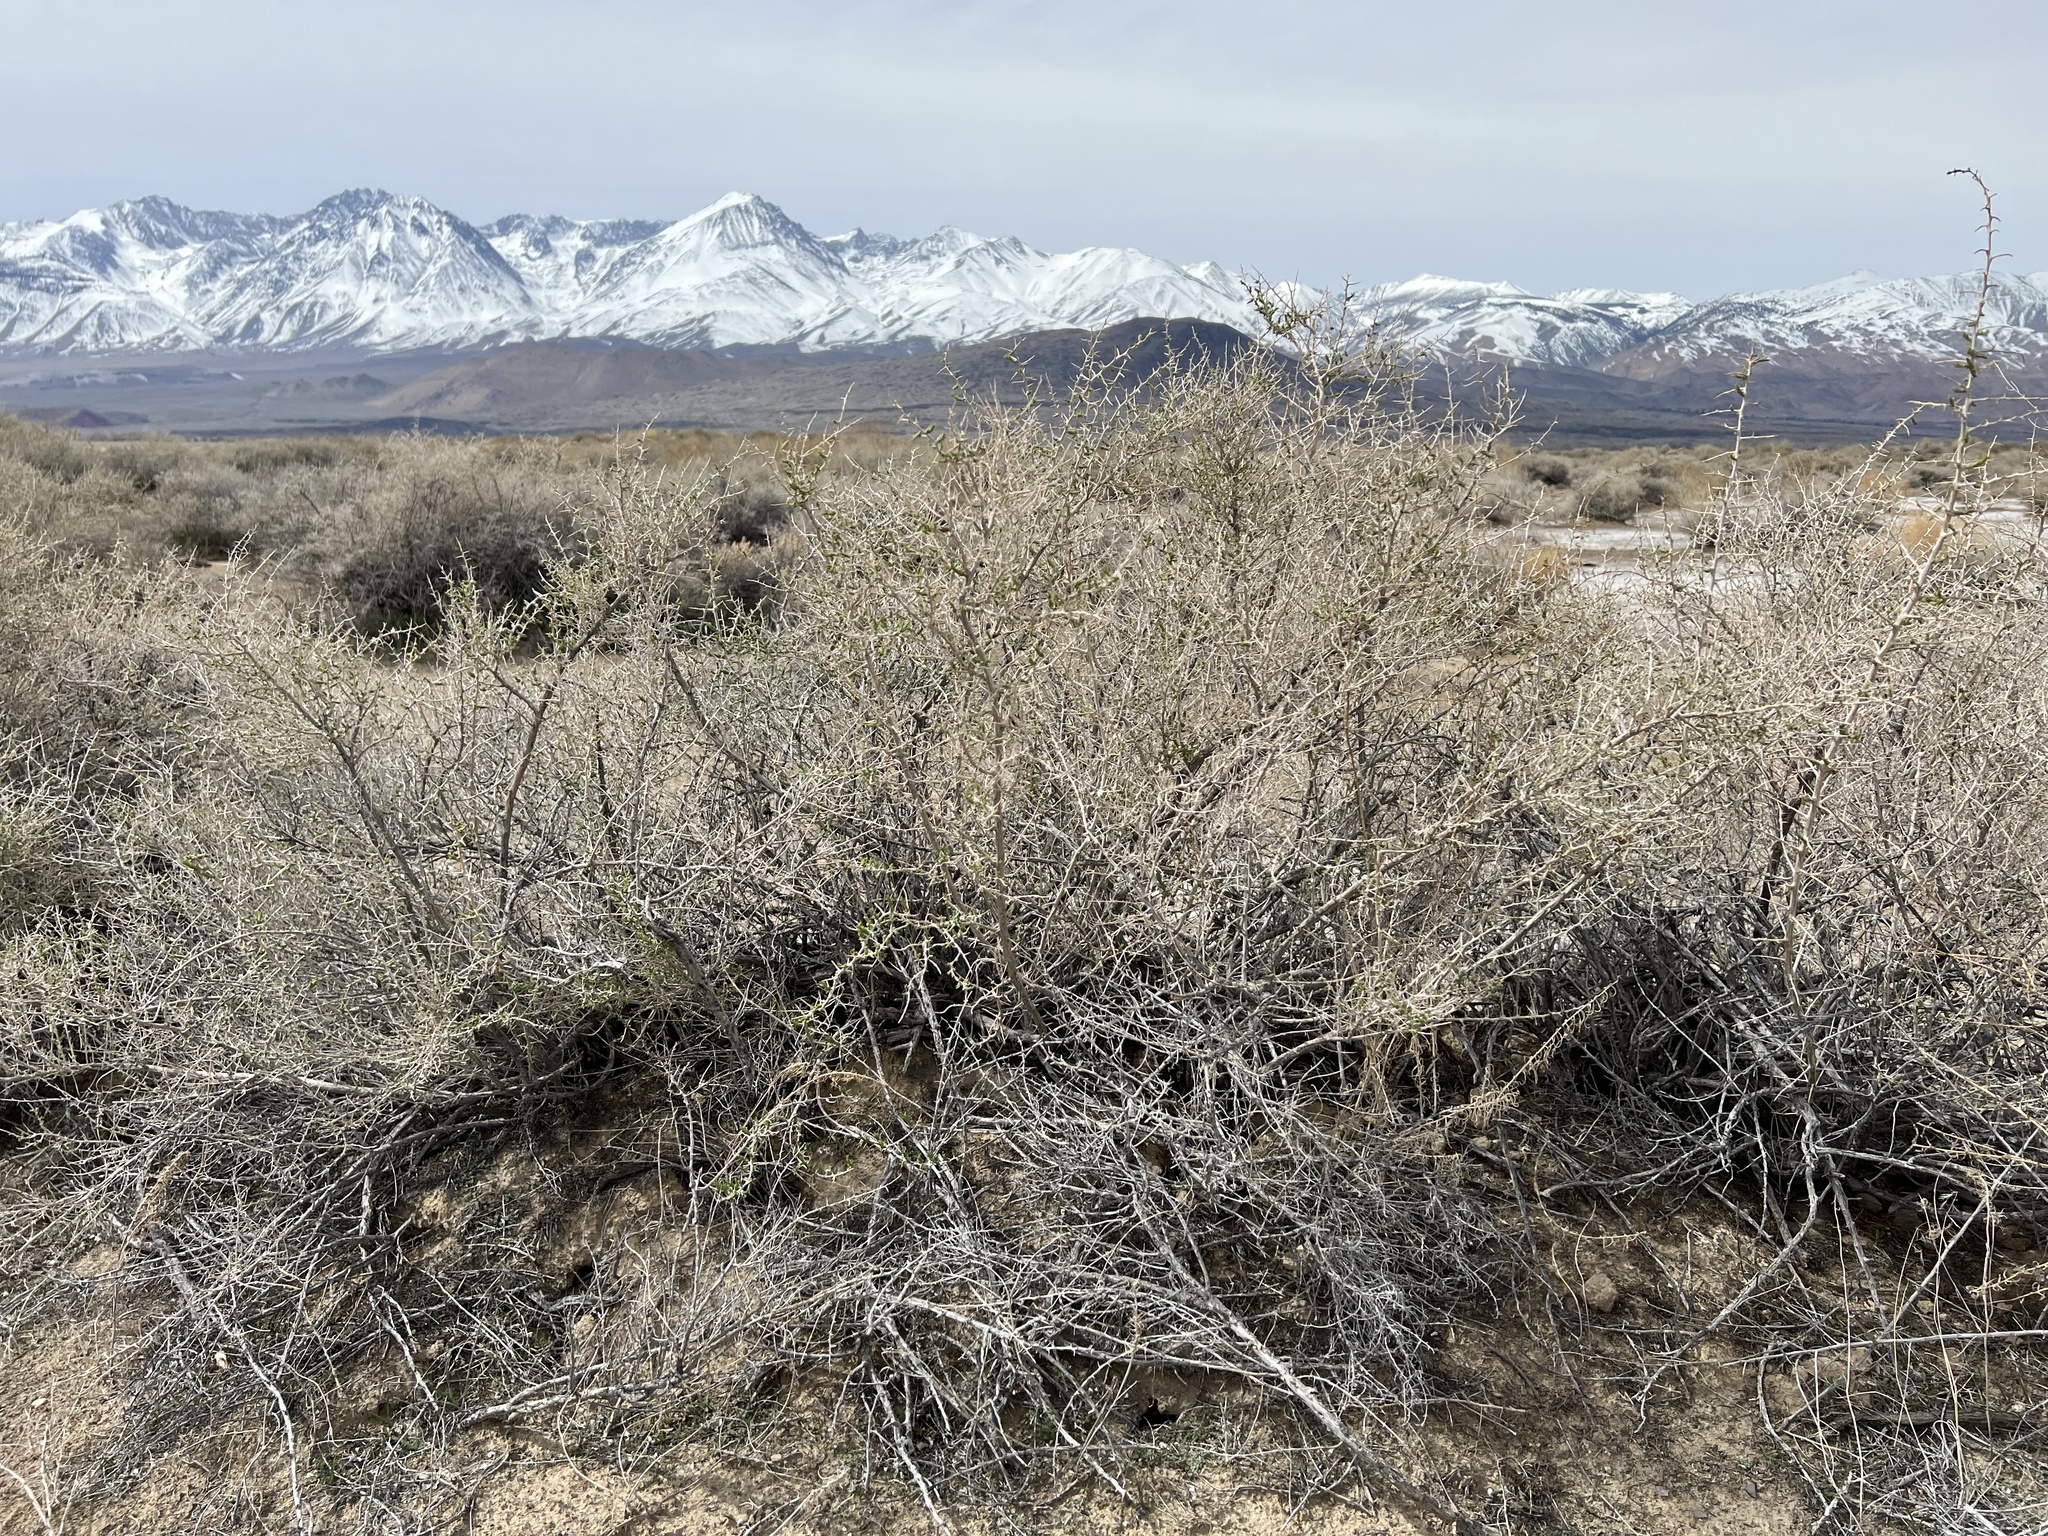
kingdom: Plantae
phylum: Tracheophyta
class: Magnoliopsida
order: Caryophyllales
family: Sarcobataceae
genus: Sarcobatus
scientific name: Sarcobatus vermiculatus
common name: Greasewood
